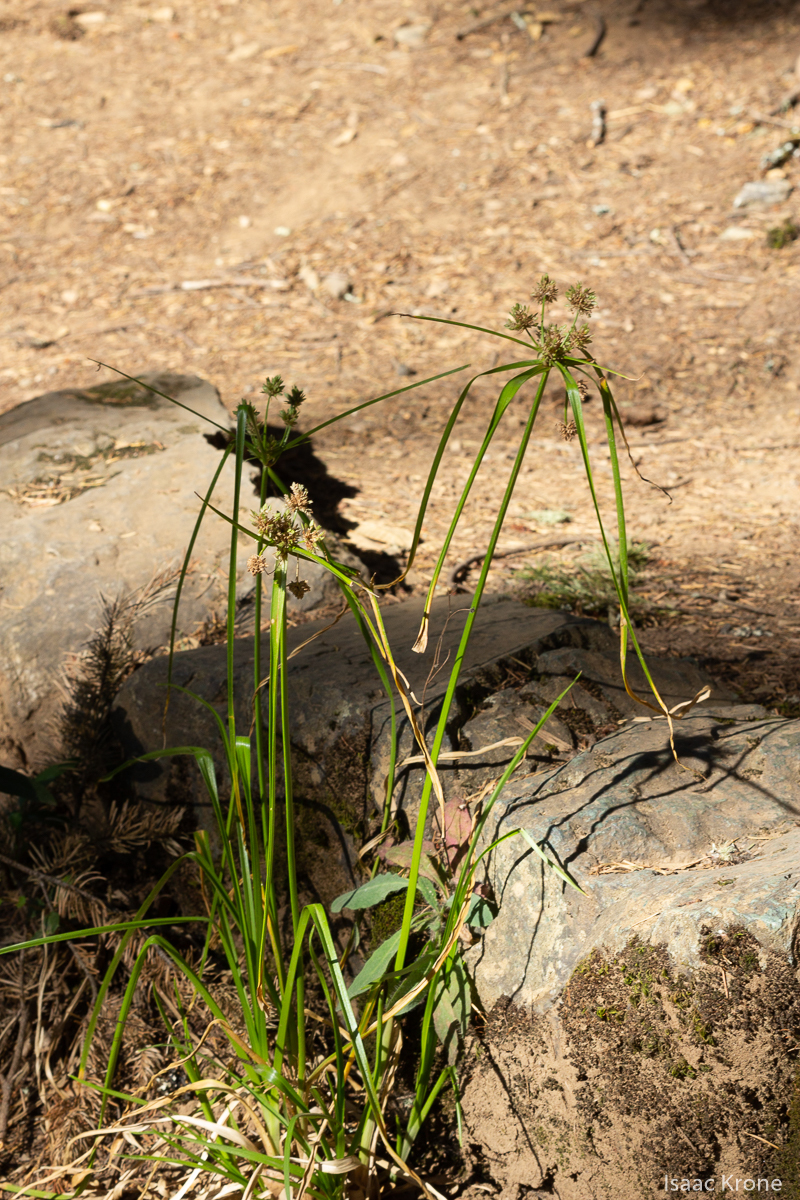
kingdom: Plantae
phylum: Tracheophyta
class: Liliopsida
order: Poales
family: Cyperaceae
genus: Cyperus
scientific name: Cyperus eragrostis
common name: Tall flatsedge
